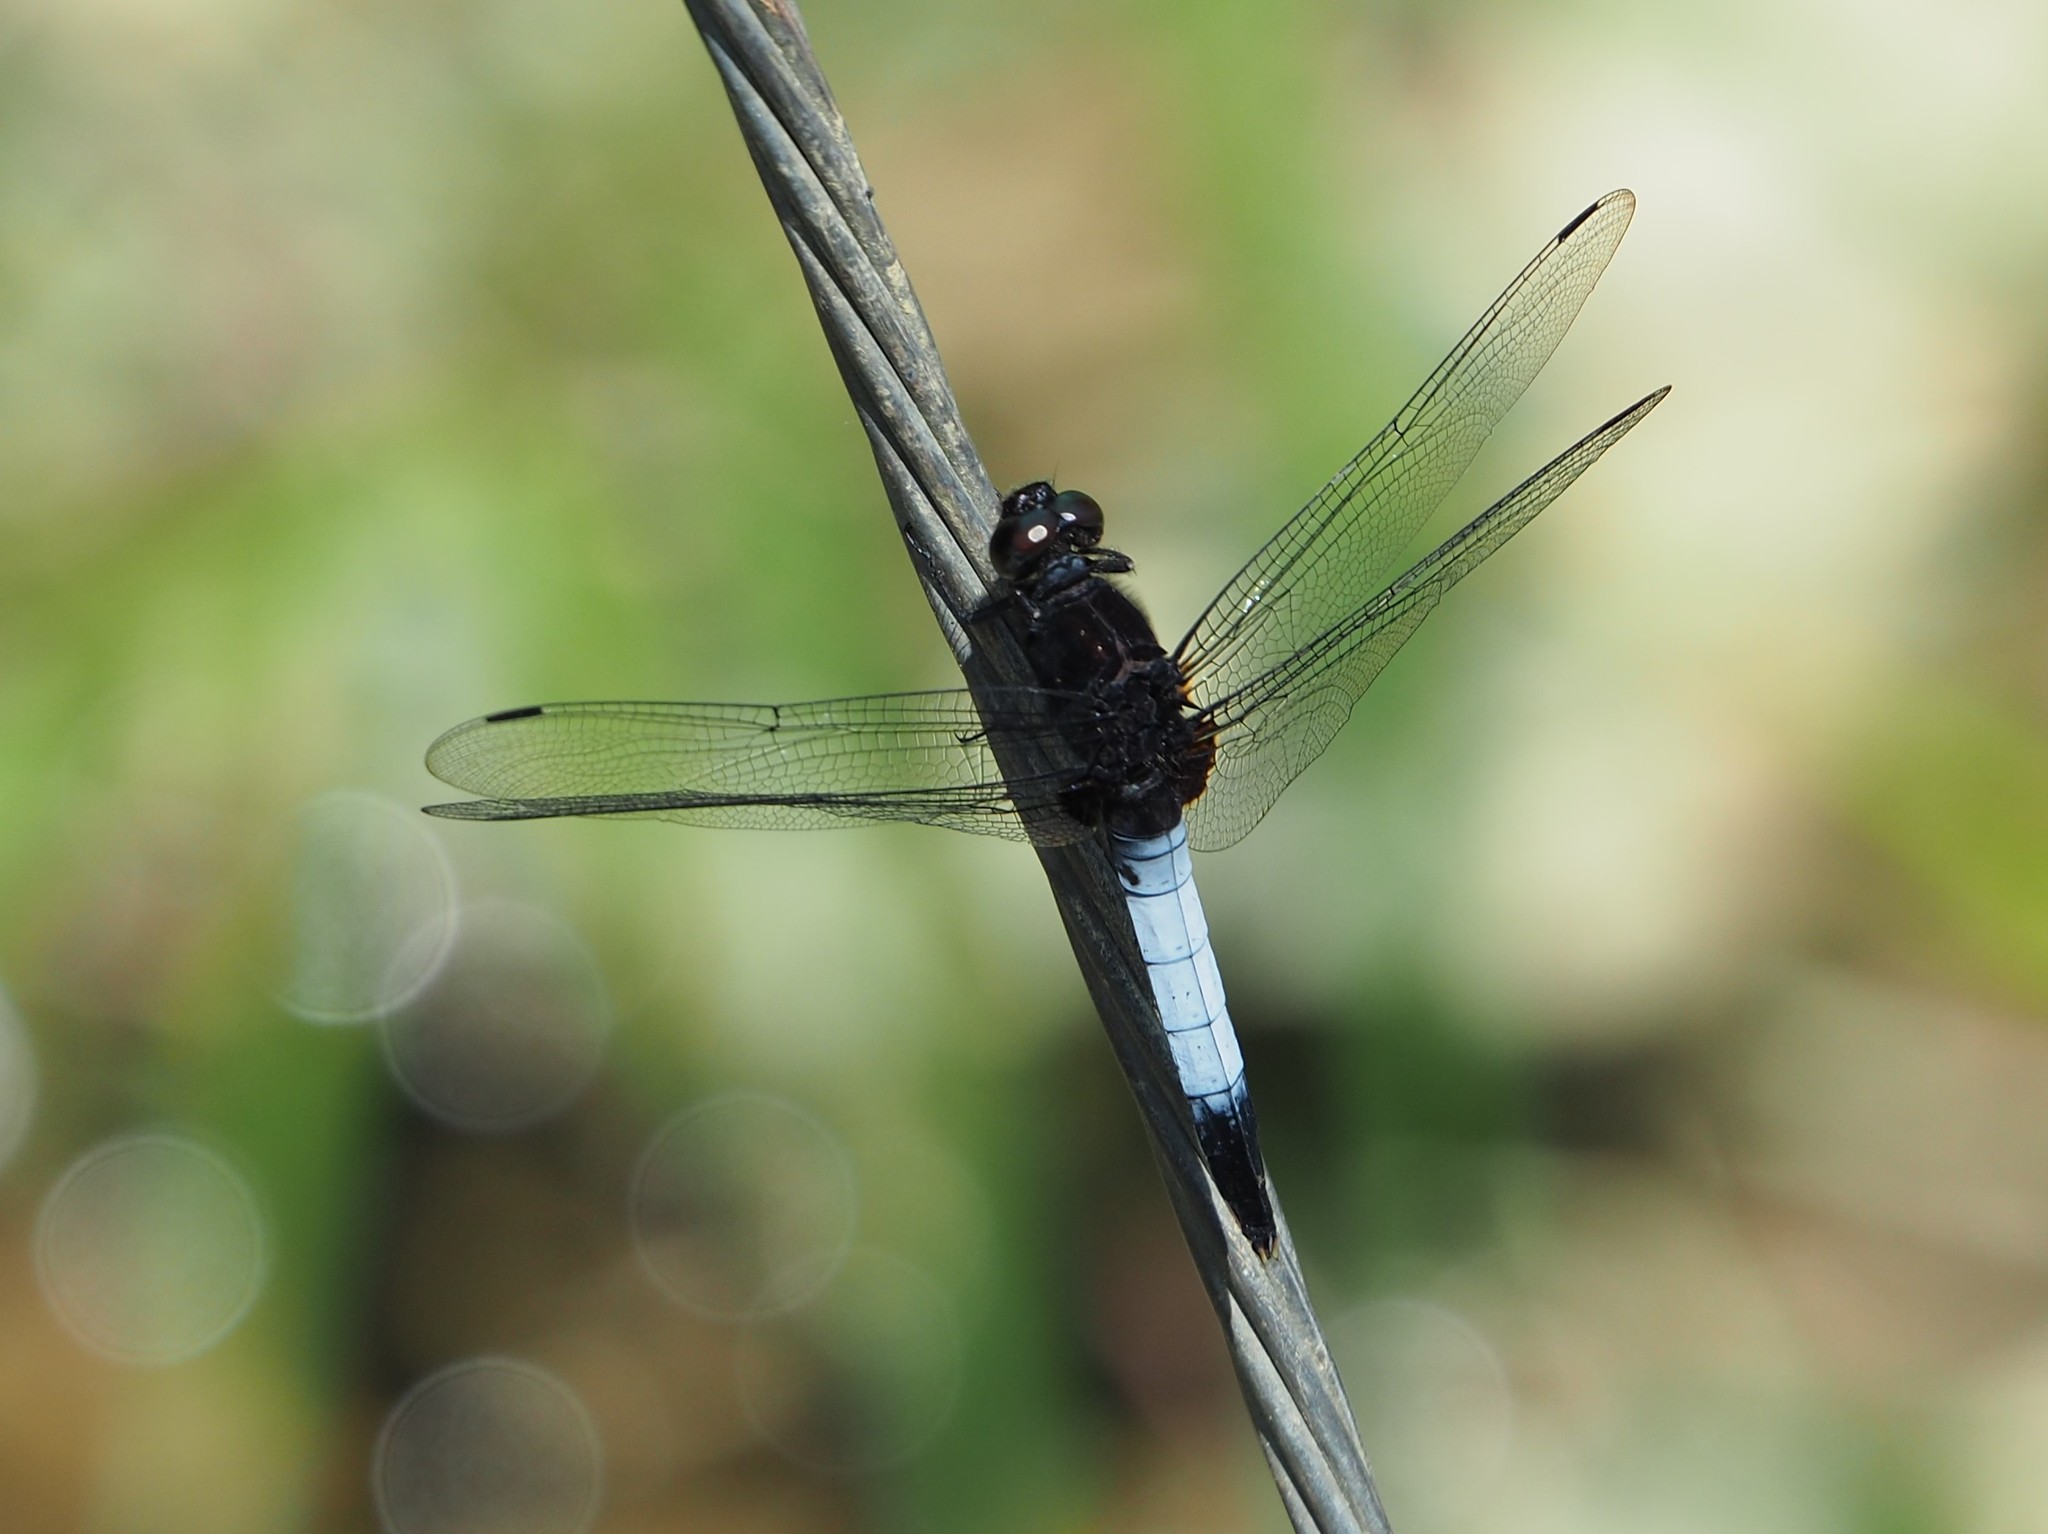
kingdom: Animalia
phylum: Arthropoda
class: Insecta
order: Odonata
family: Libellulidae
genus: Orthetrum
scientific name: Orthetrum triangulare
